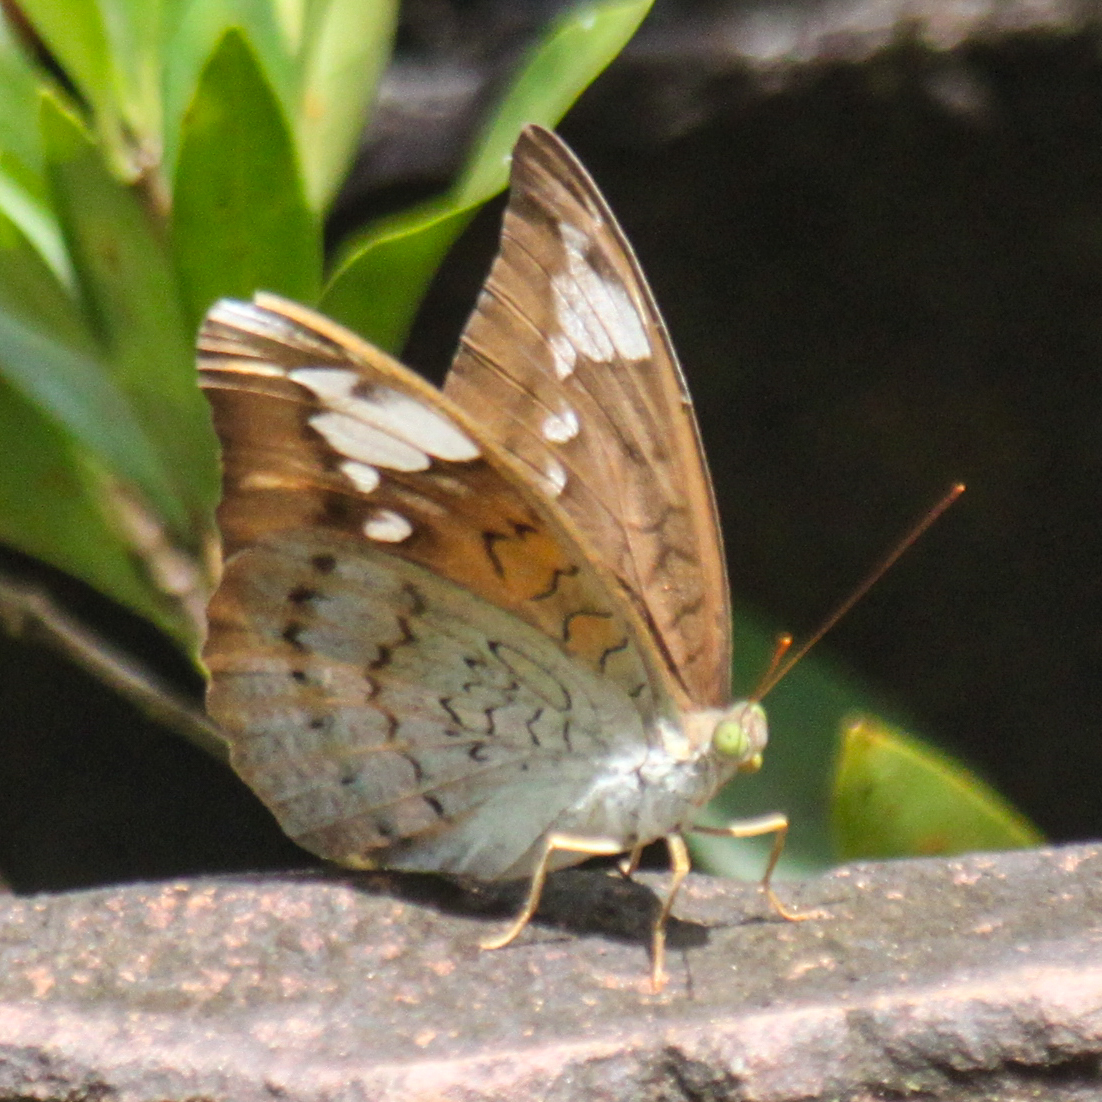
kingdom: Animalia
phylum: Arthropoda
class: Insecta
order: Lepidoptera
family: Nymphalidae
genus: Tanaecia
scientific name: Tanaecia julii
